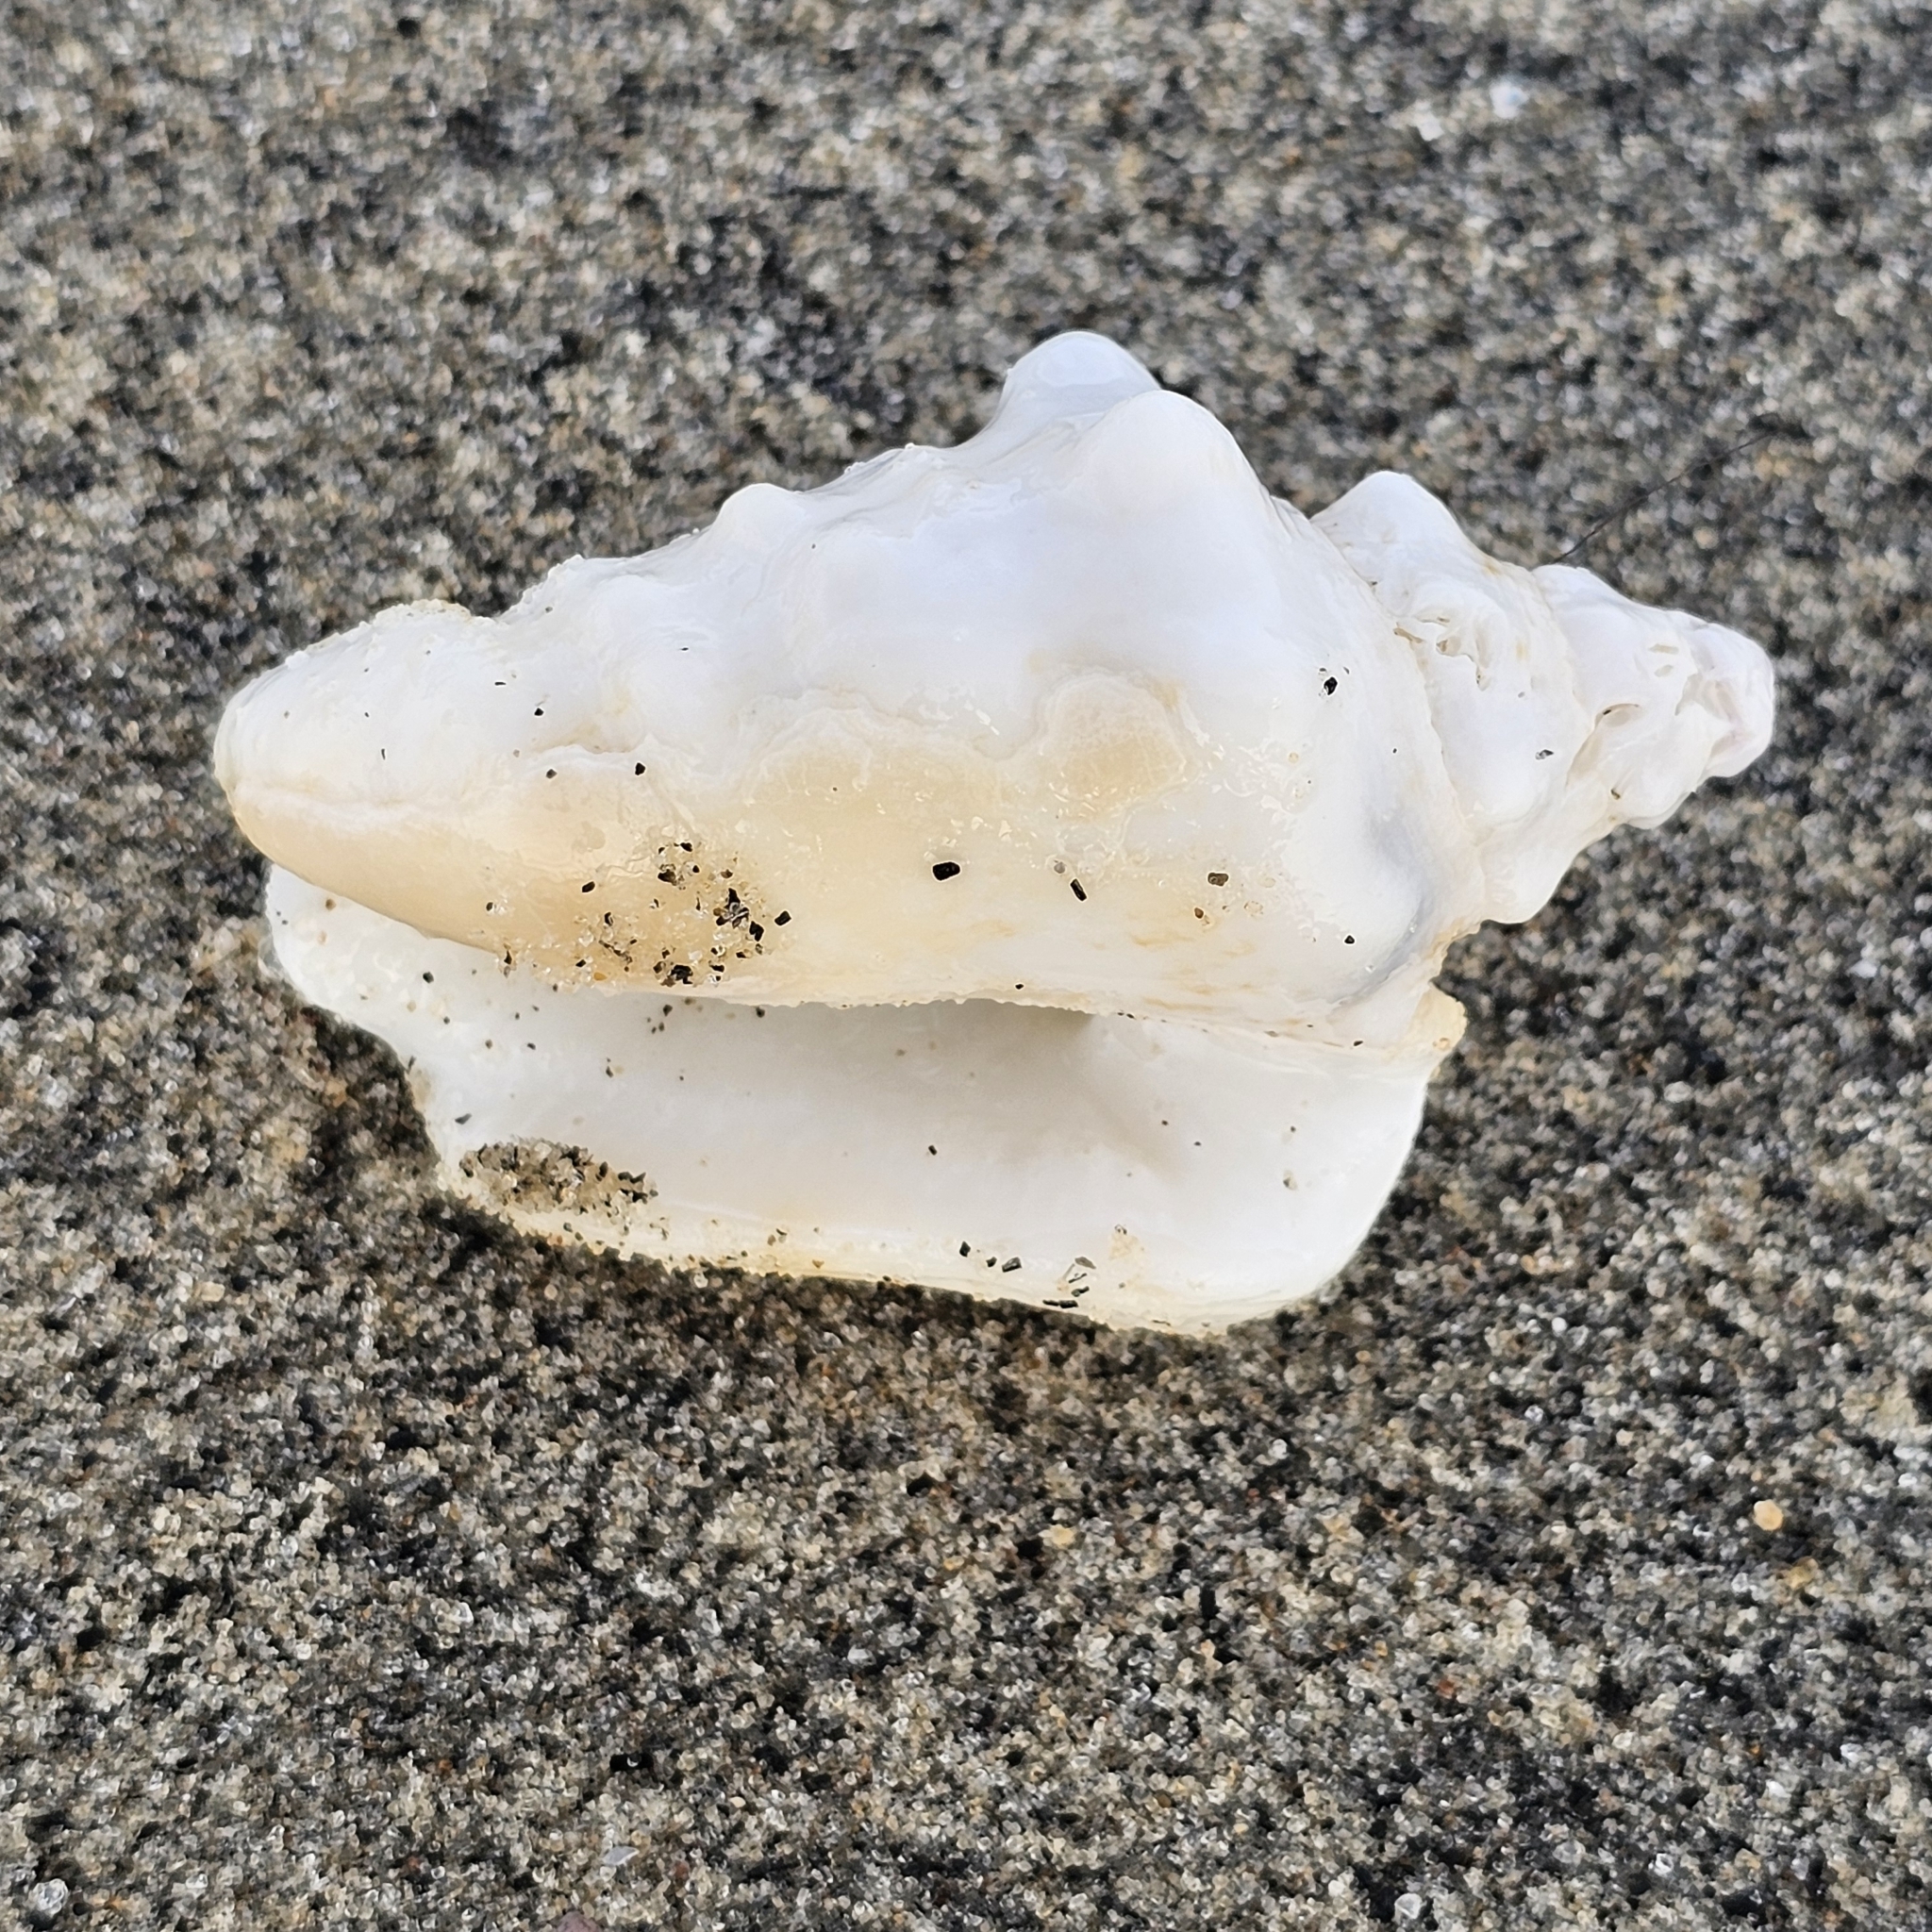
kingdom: Animalia
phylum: Mollusca
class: Gastropoda
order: Littorinimorpha
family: Strombidae
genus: Persististrombus
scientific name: Persististrombus granulatus
